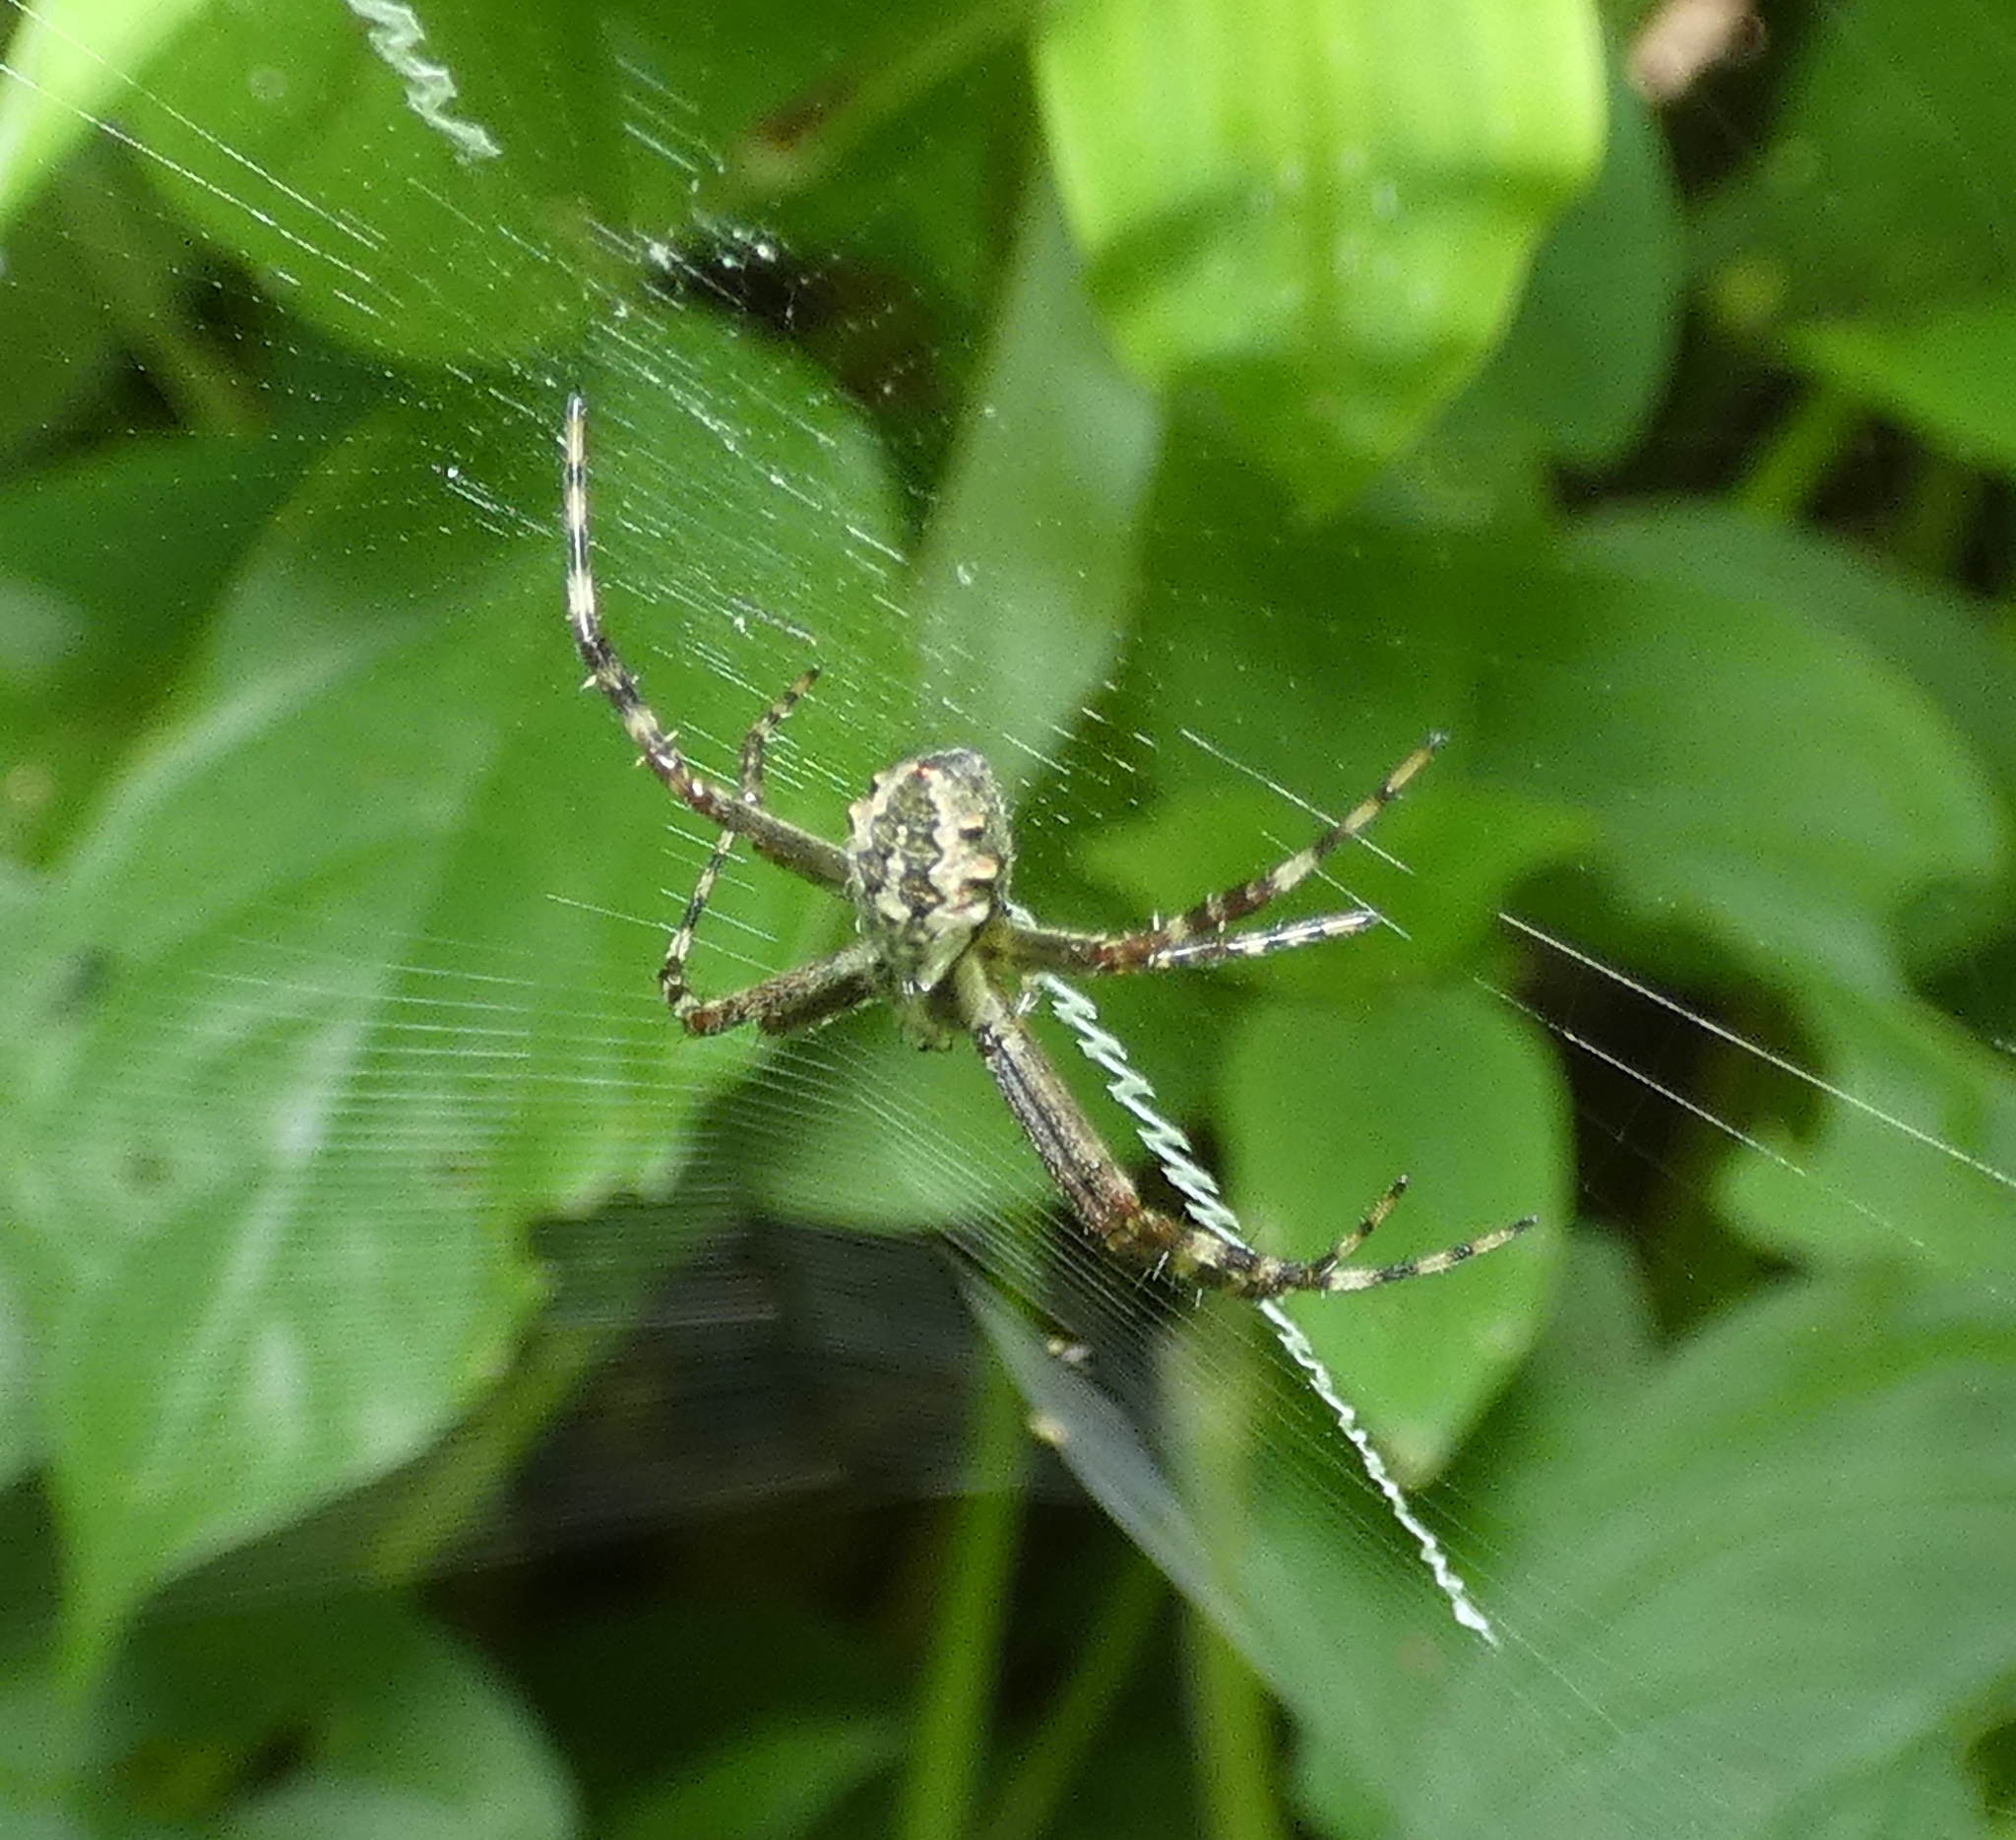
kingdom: Animalia
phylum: Arthropoda
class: Arachnida
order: Araneae
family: Araneidae
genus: Argiope
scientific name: Argiope argentata
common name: Orb weavers
